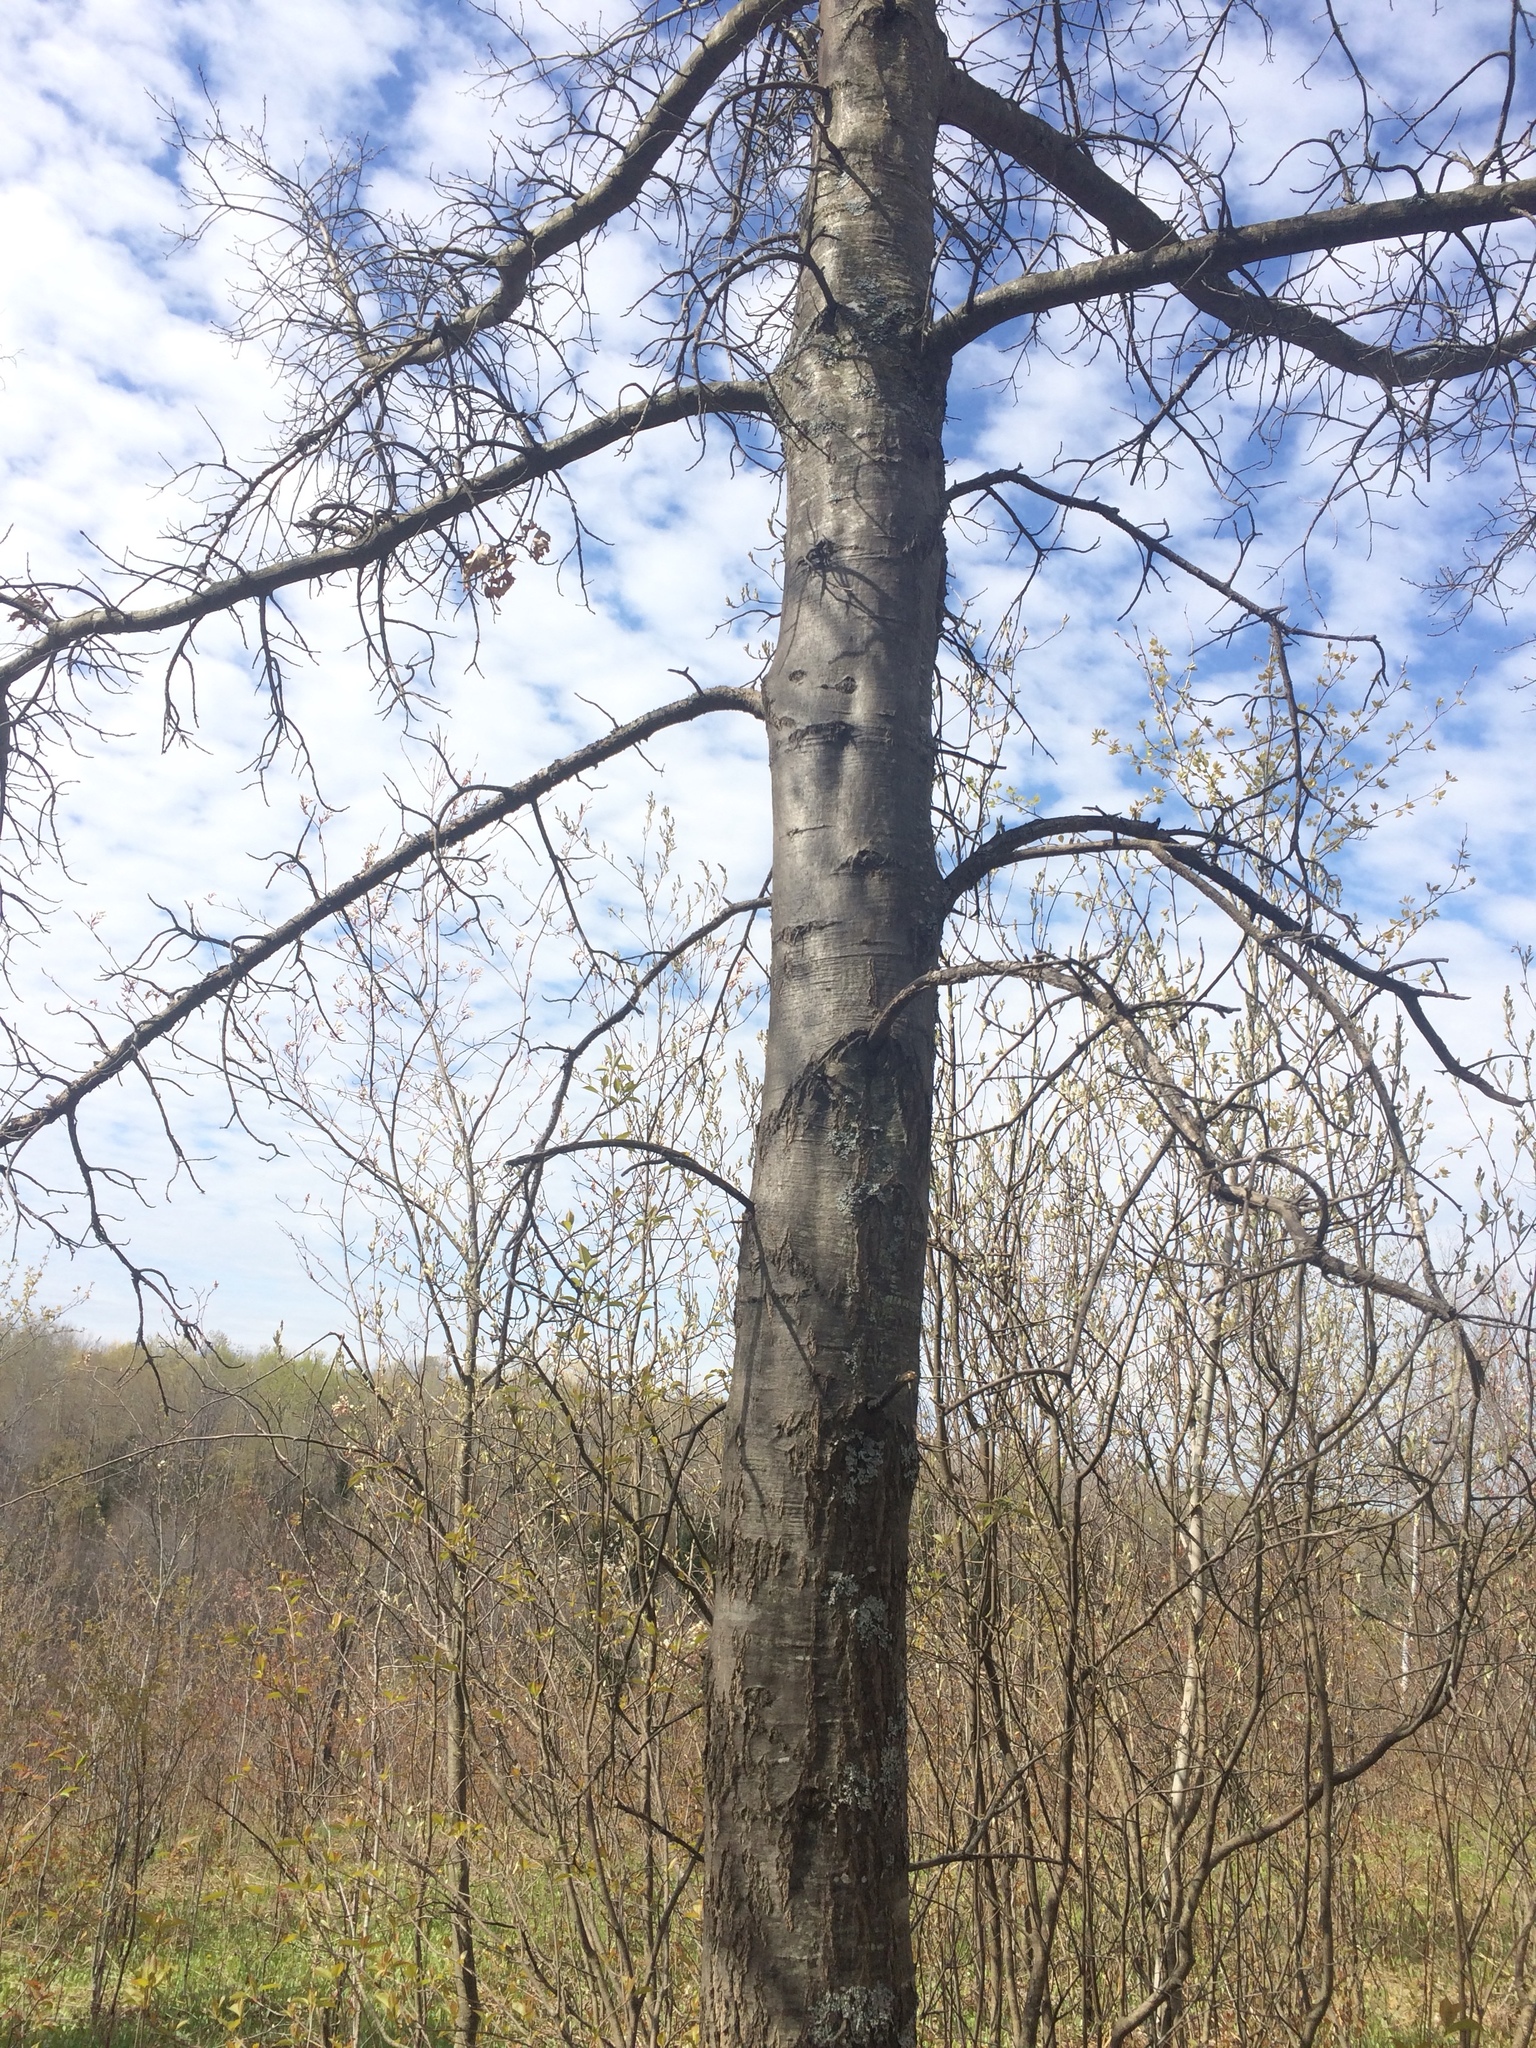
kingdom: Plantae
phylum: Tracheophyta
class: Magnoliopsida
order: Fagales
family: Fagaceae
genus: Quercus
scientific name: Quercus palustris
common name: Pin oak
